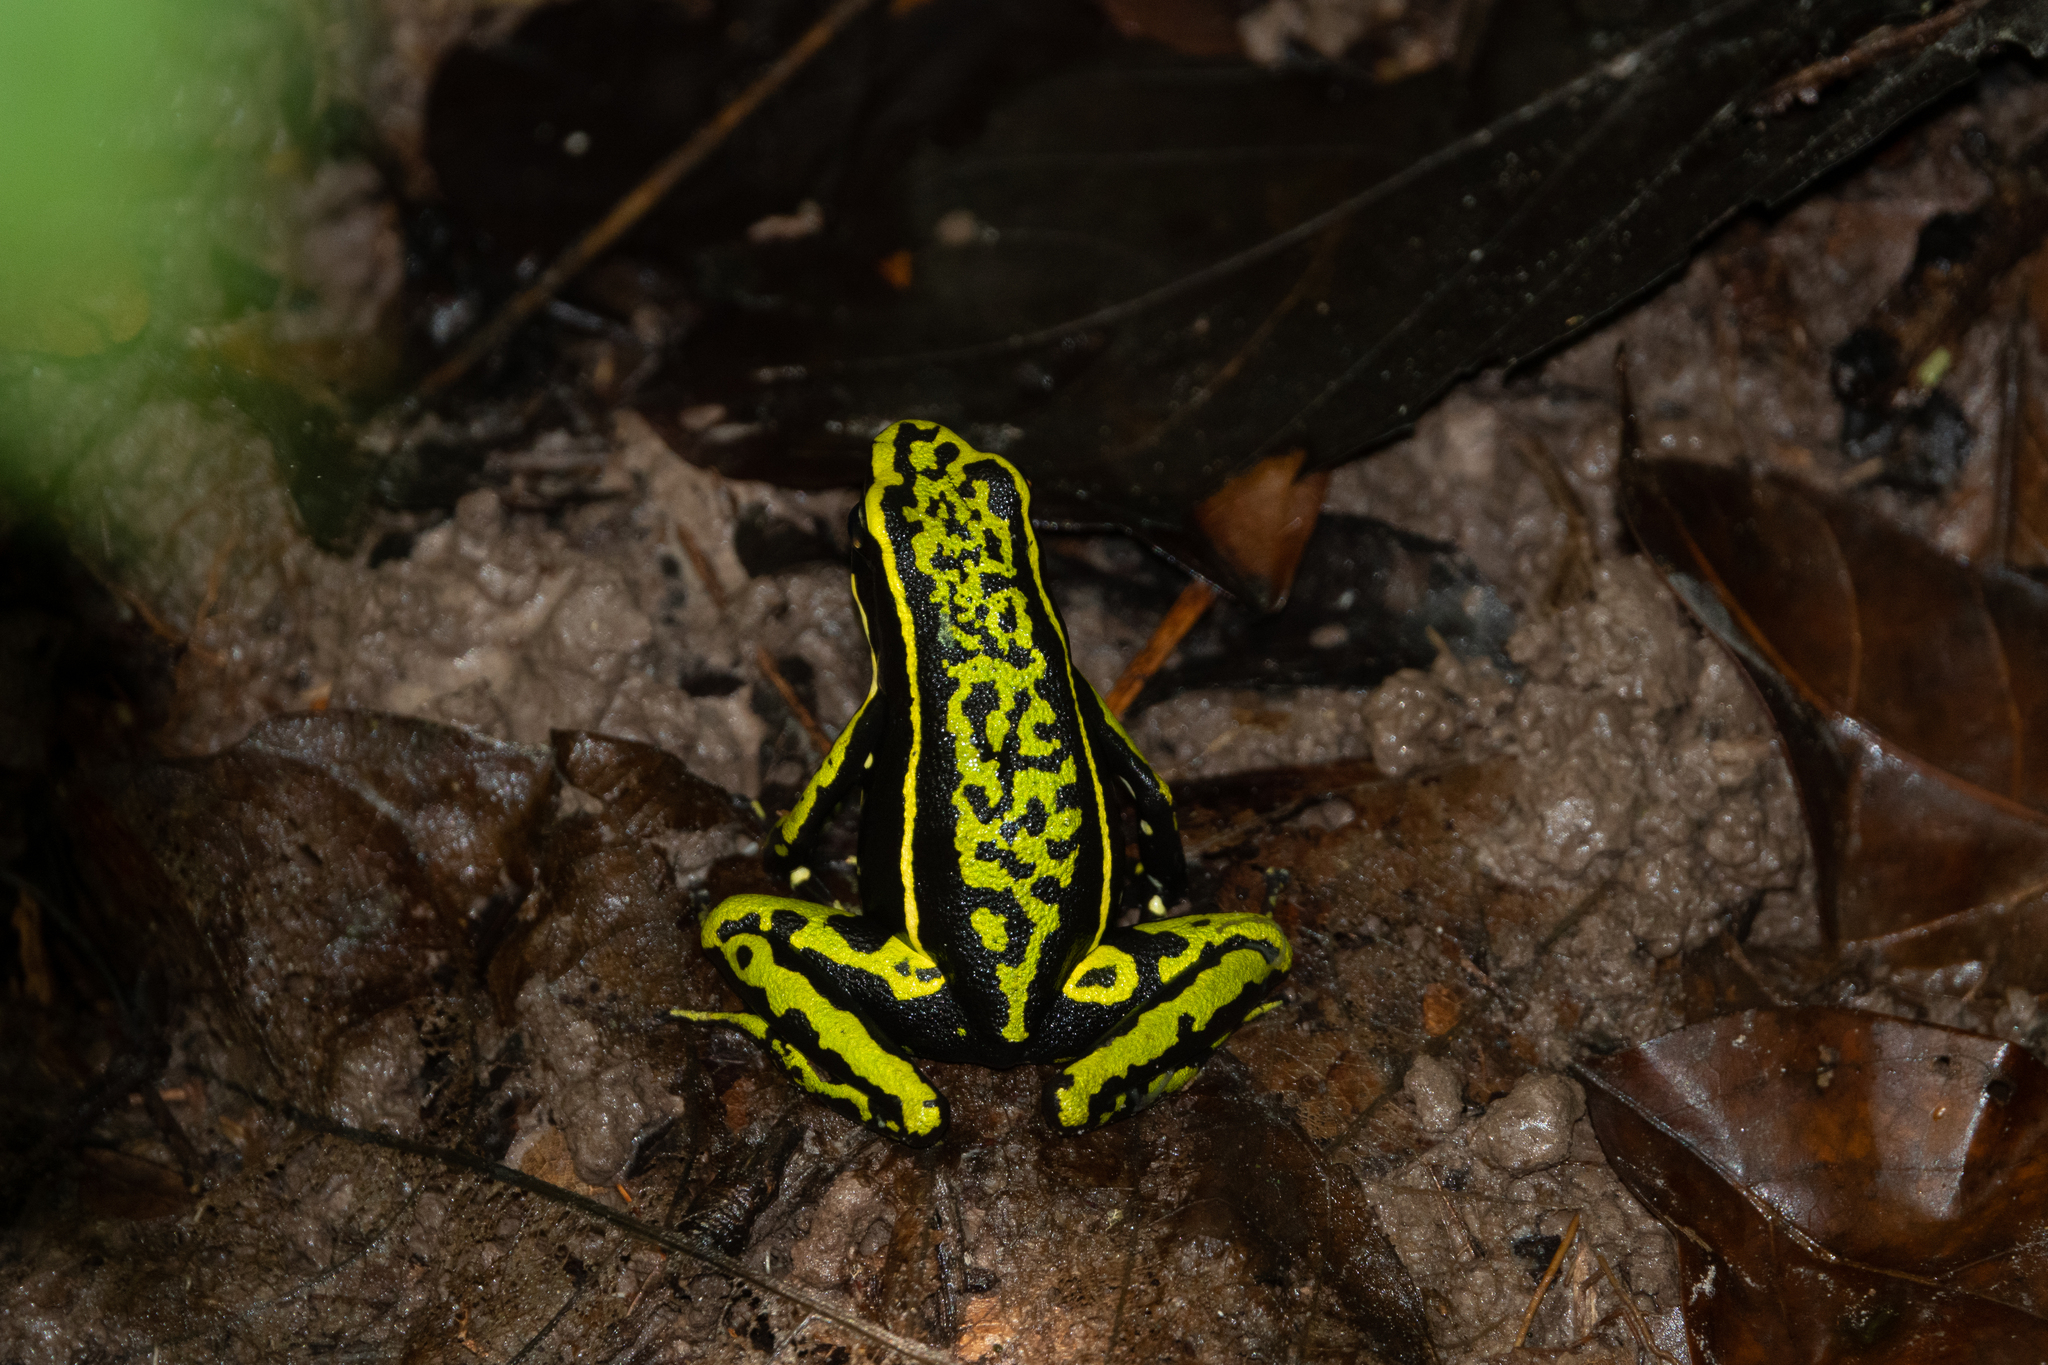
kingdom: Animalia
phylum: Chordata
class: Amphibia
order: Anura
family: Dendrobatidae
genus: Ameerega
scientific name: Ameerega trivittata
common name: Three-striped arrow-poison frog
